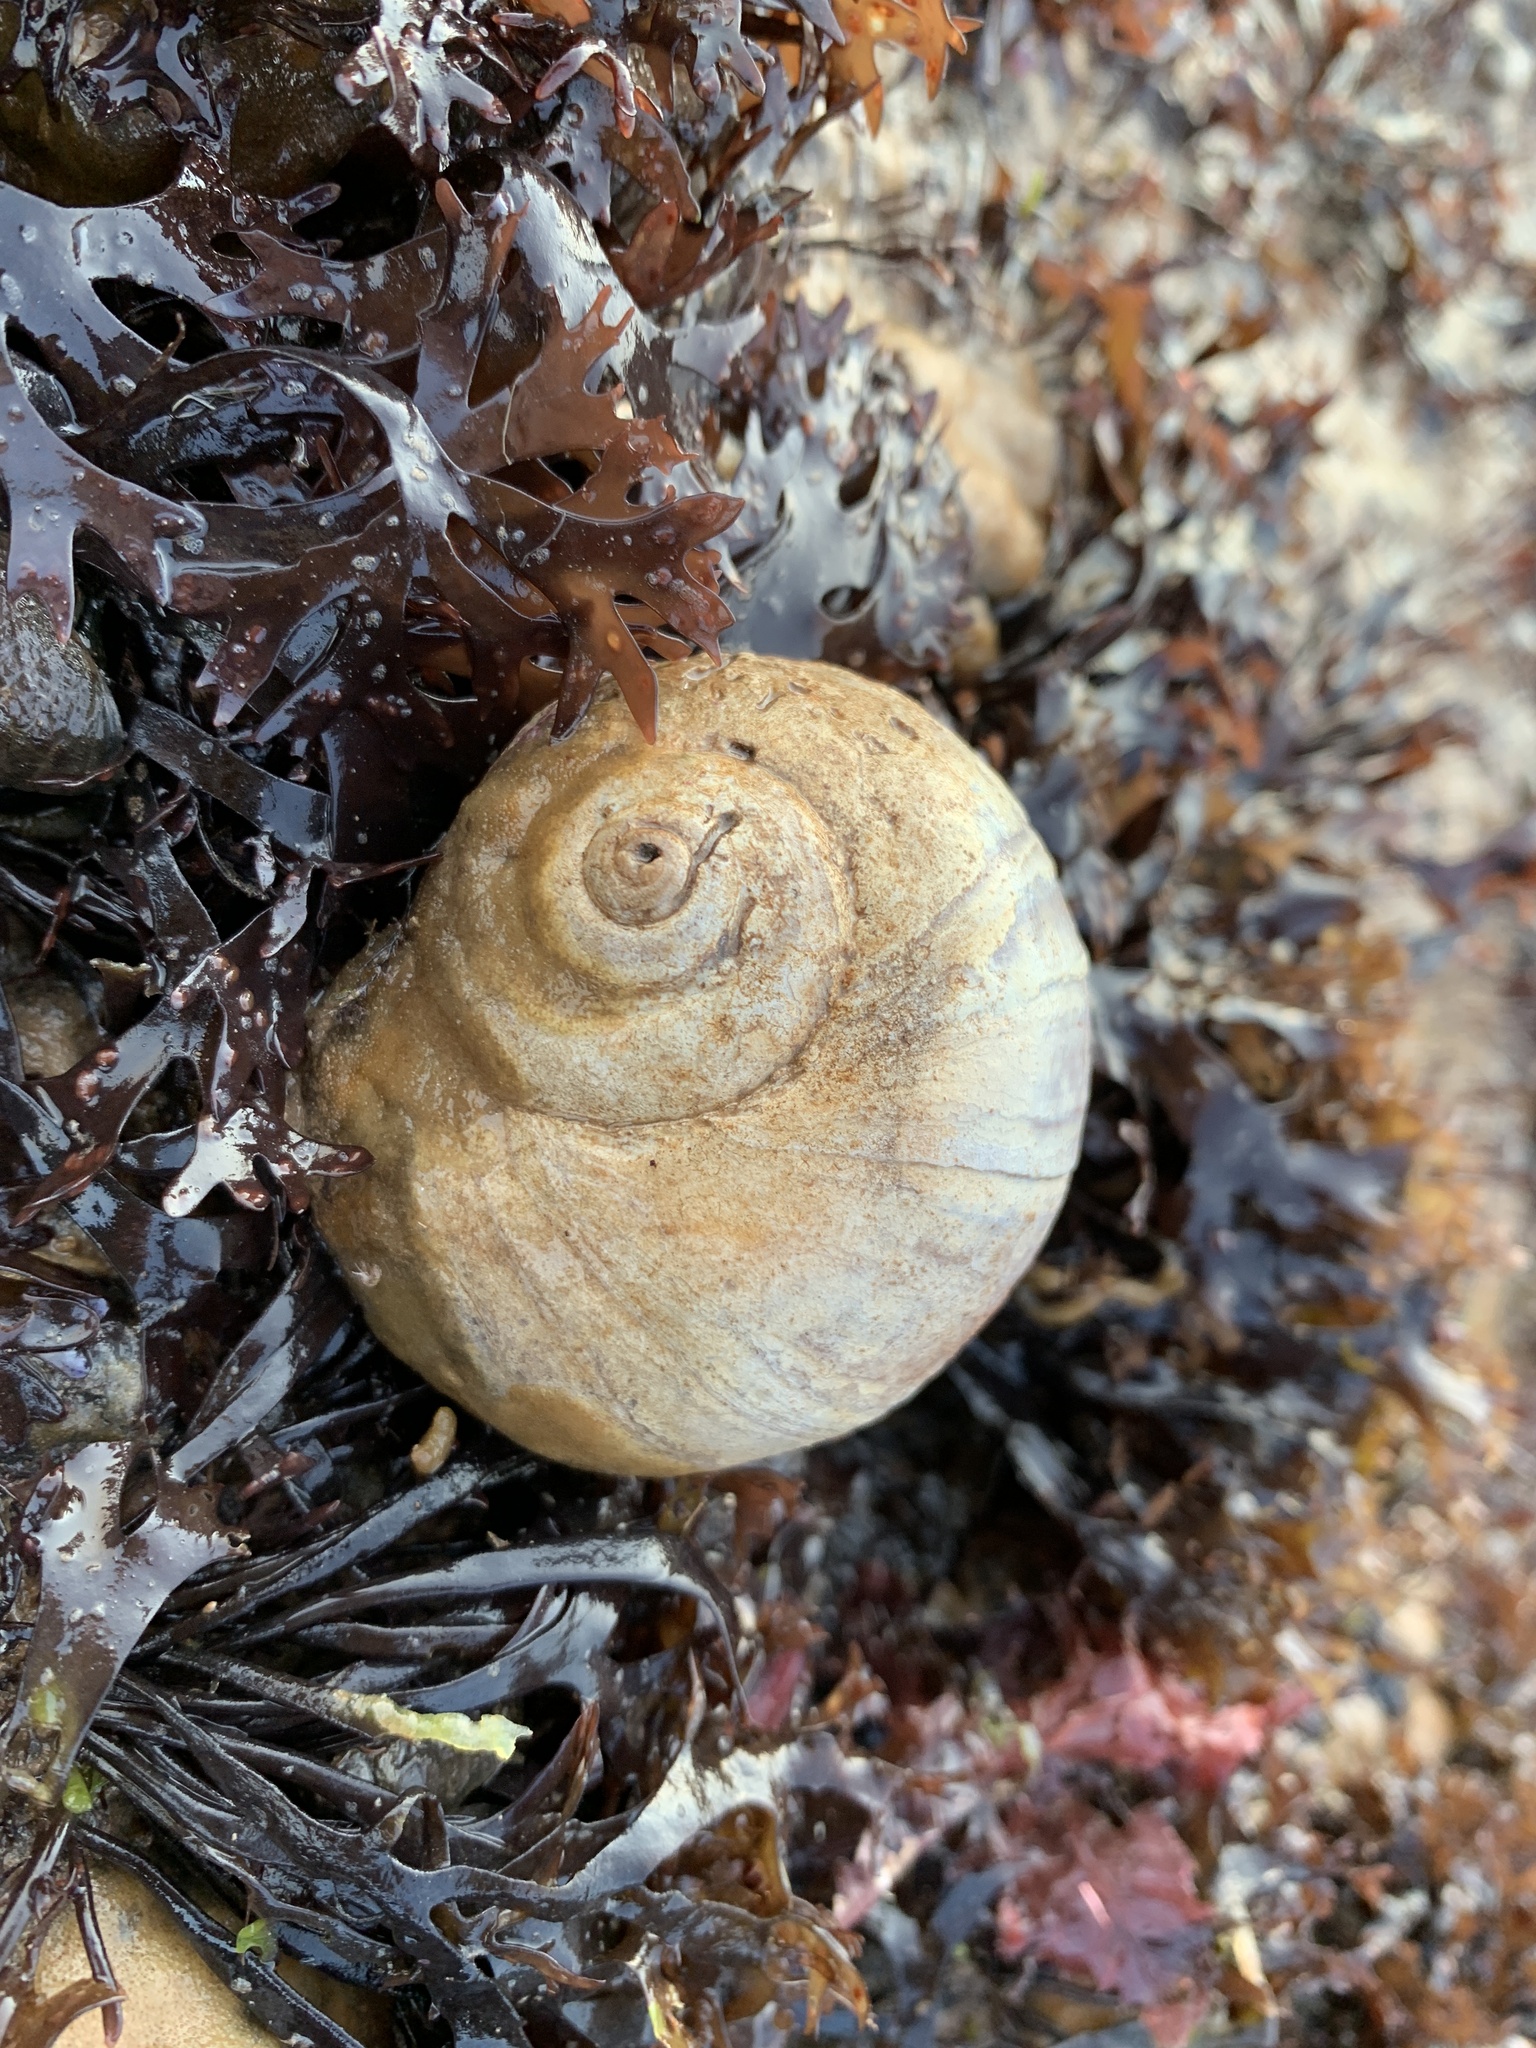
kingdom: Animalia
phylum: Mollusca
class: Gastropoda
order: Littorinimorpha
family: Naticidae
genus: Euspira
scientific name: Euspira heros
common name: Common northern moonsnail
